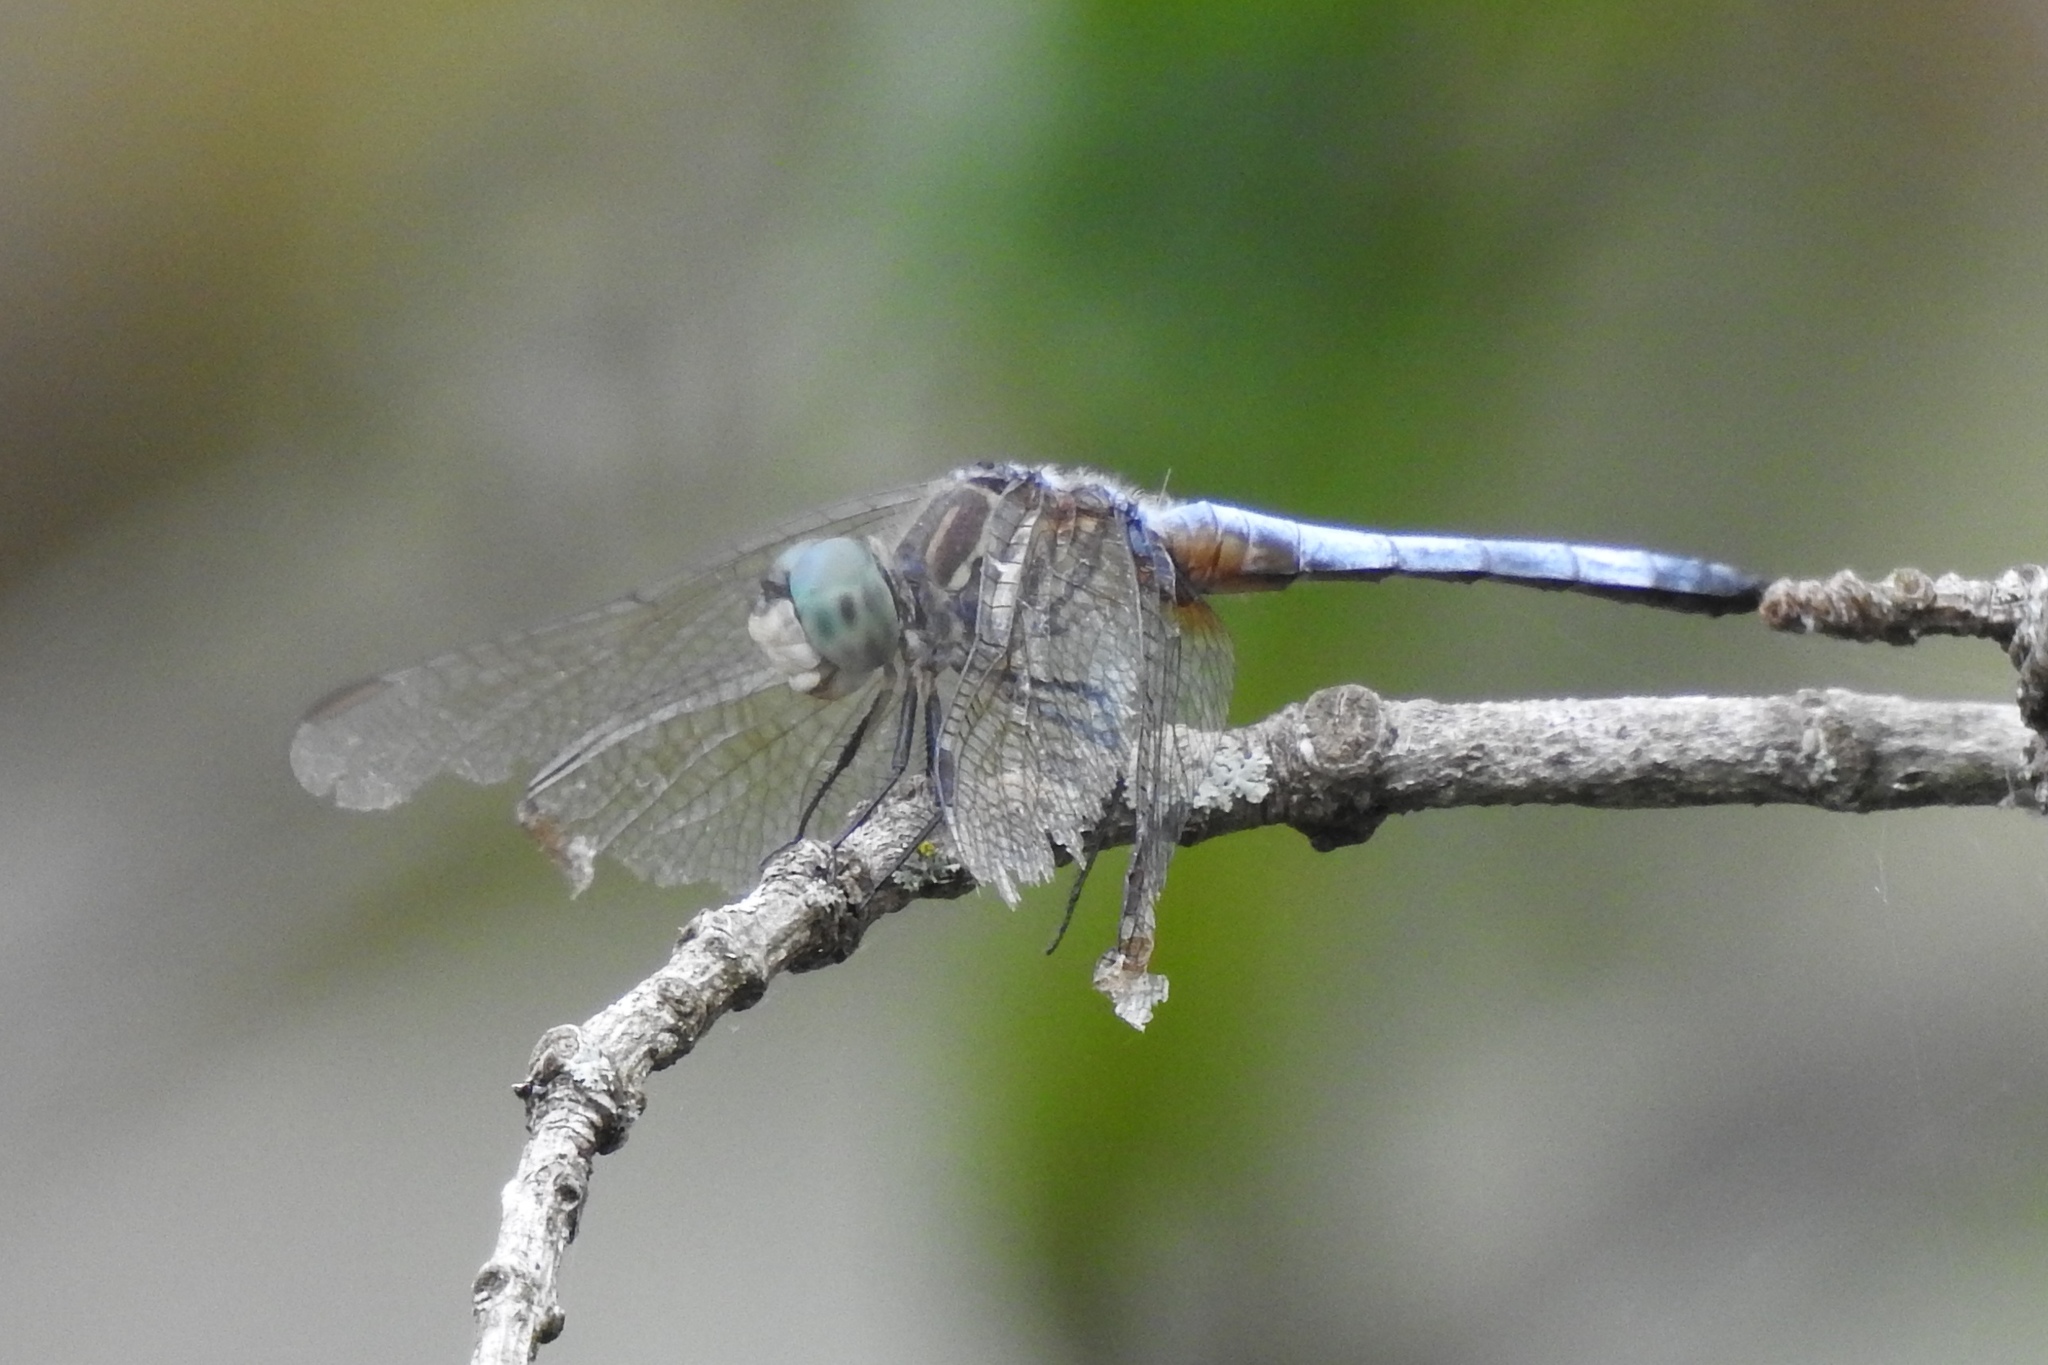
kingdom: Animalia
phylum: Arthropoda
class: Insecta
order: Odonata
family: Libellulidae
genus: Pachydiplax
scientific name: Pachydiplax longipennis
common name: Blue dasher
